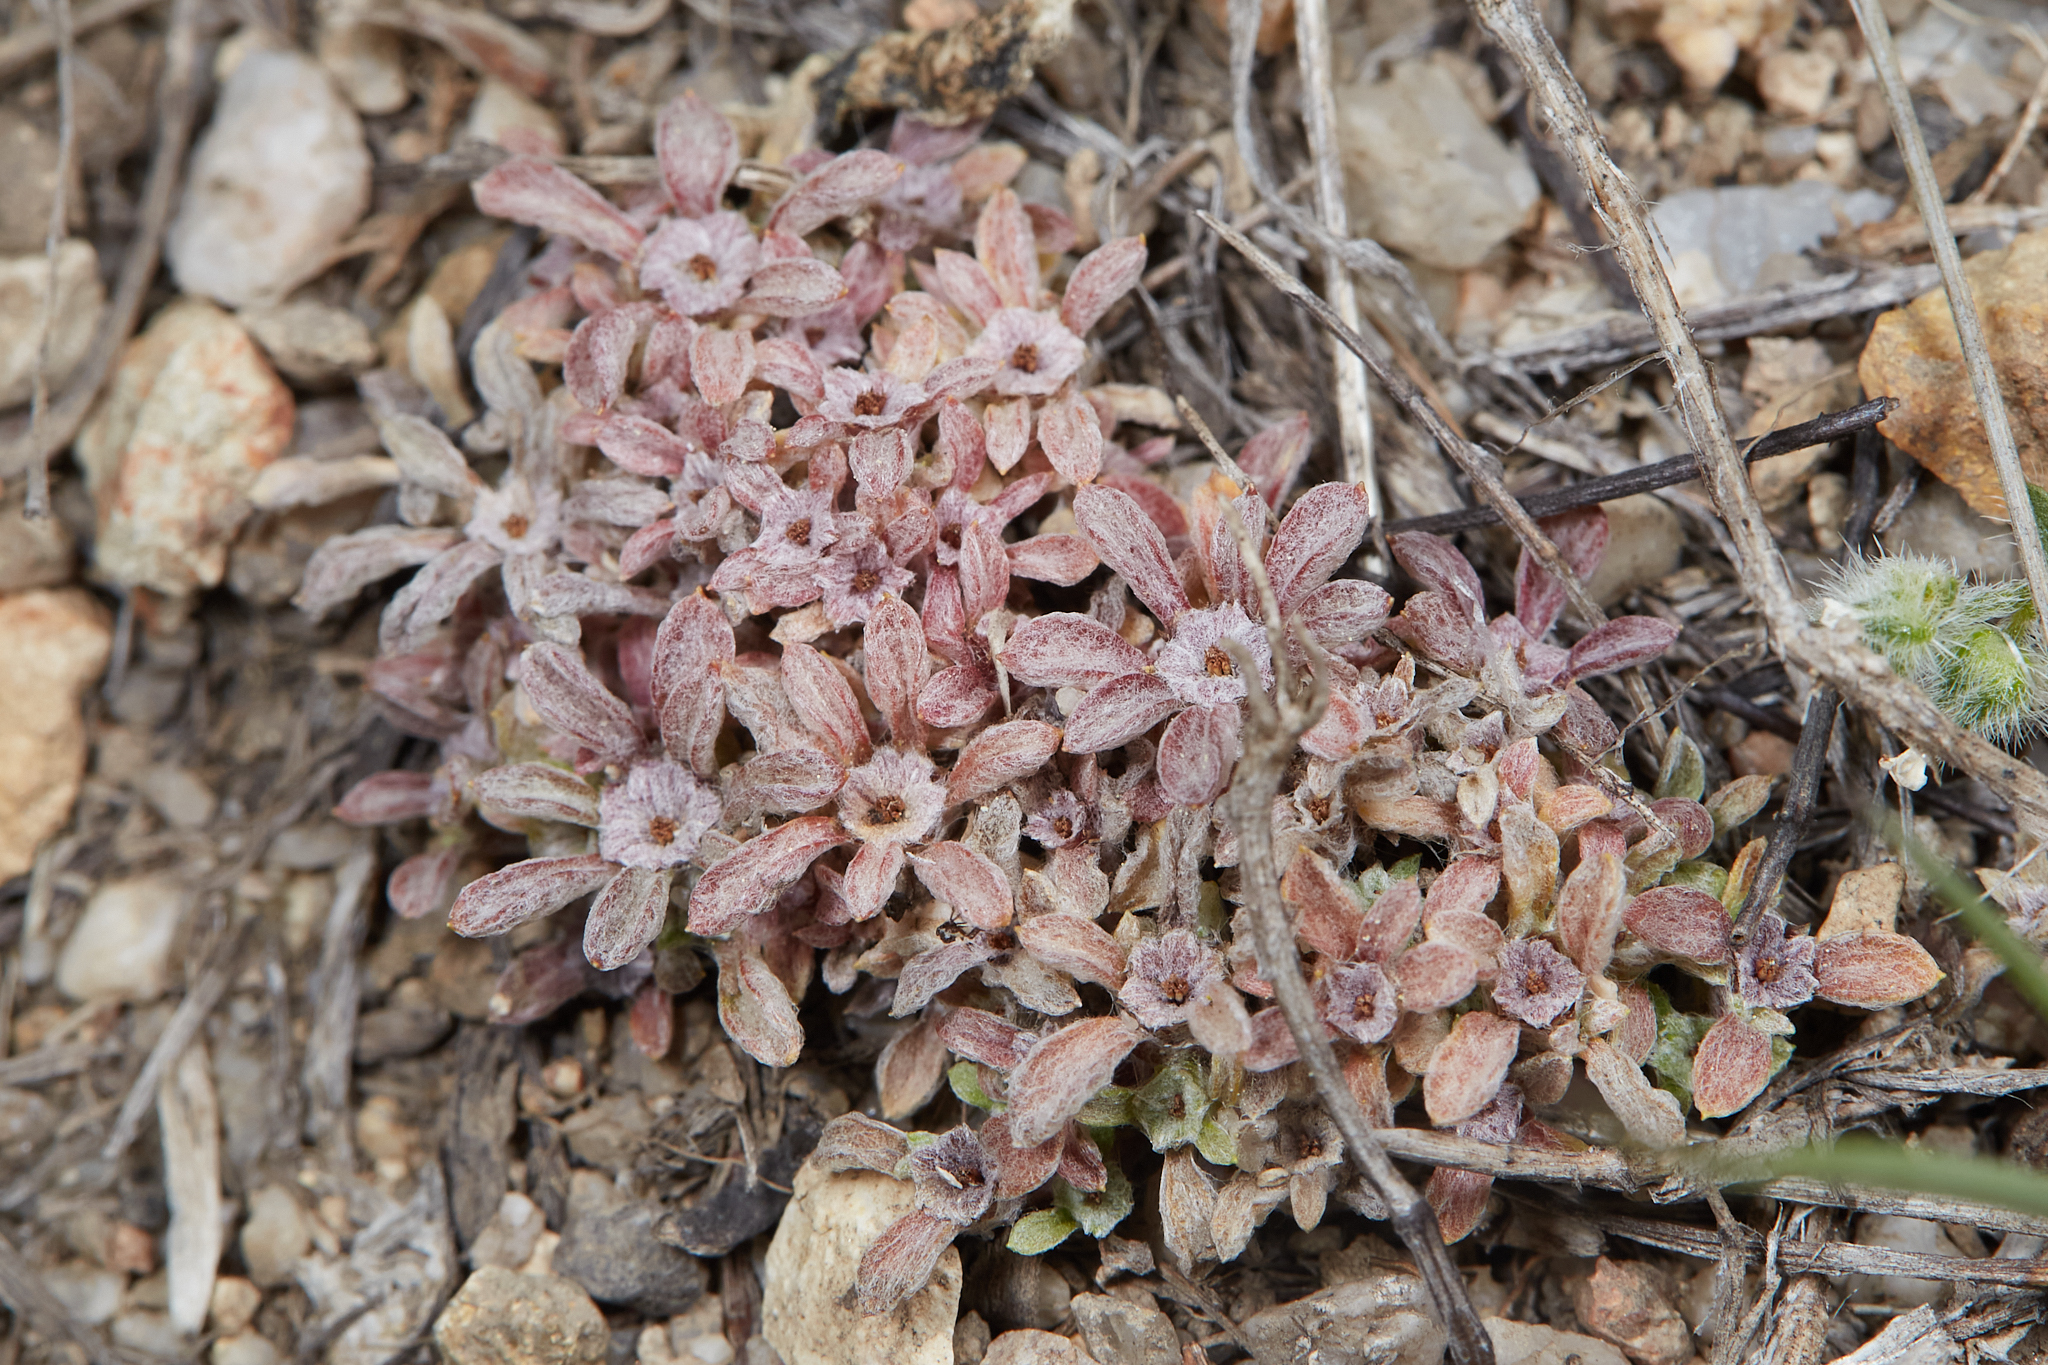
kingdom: Plantae
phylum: Tracheophyta
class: Magnoliopsida
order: Asterales
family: Asteraceae
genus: Hesperevax
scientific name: Hesperevax acaulis
